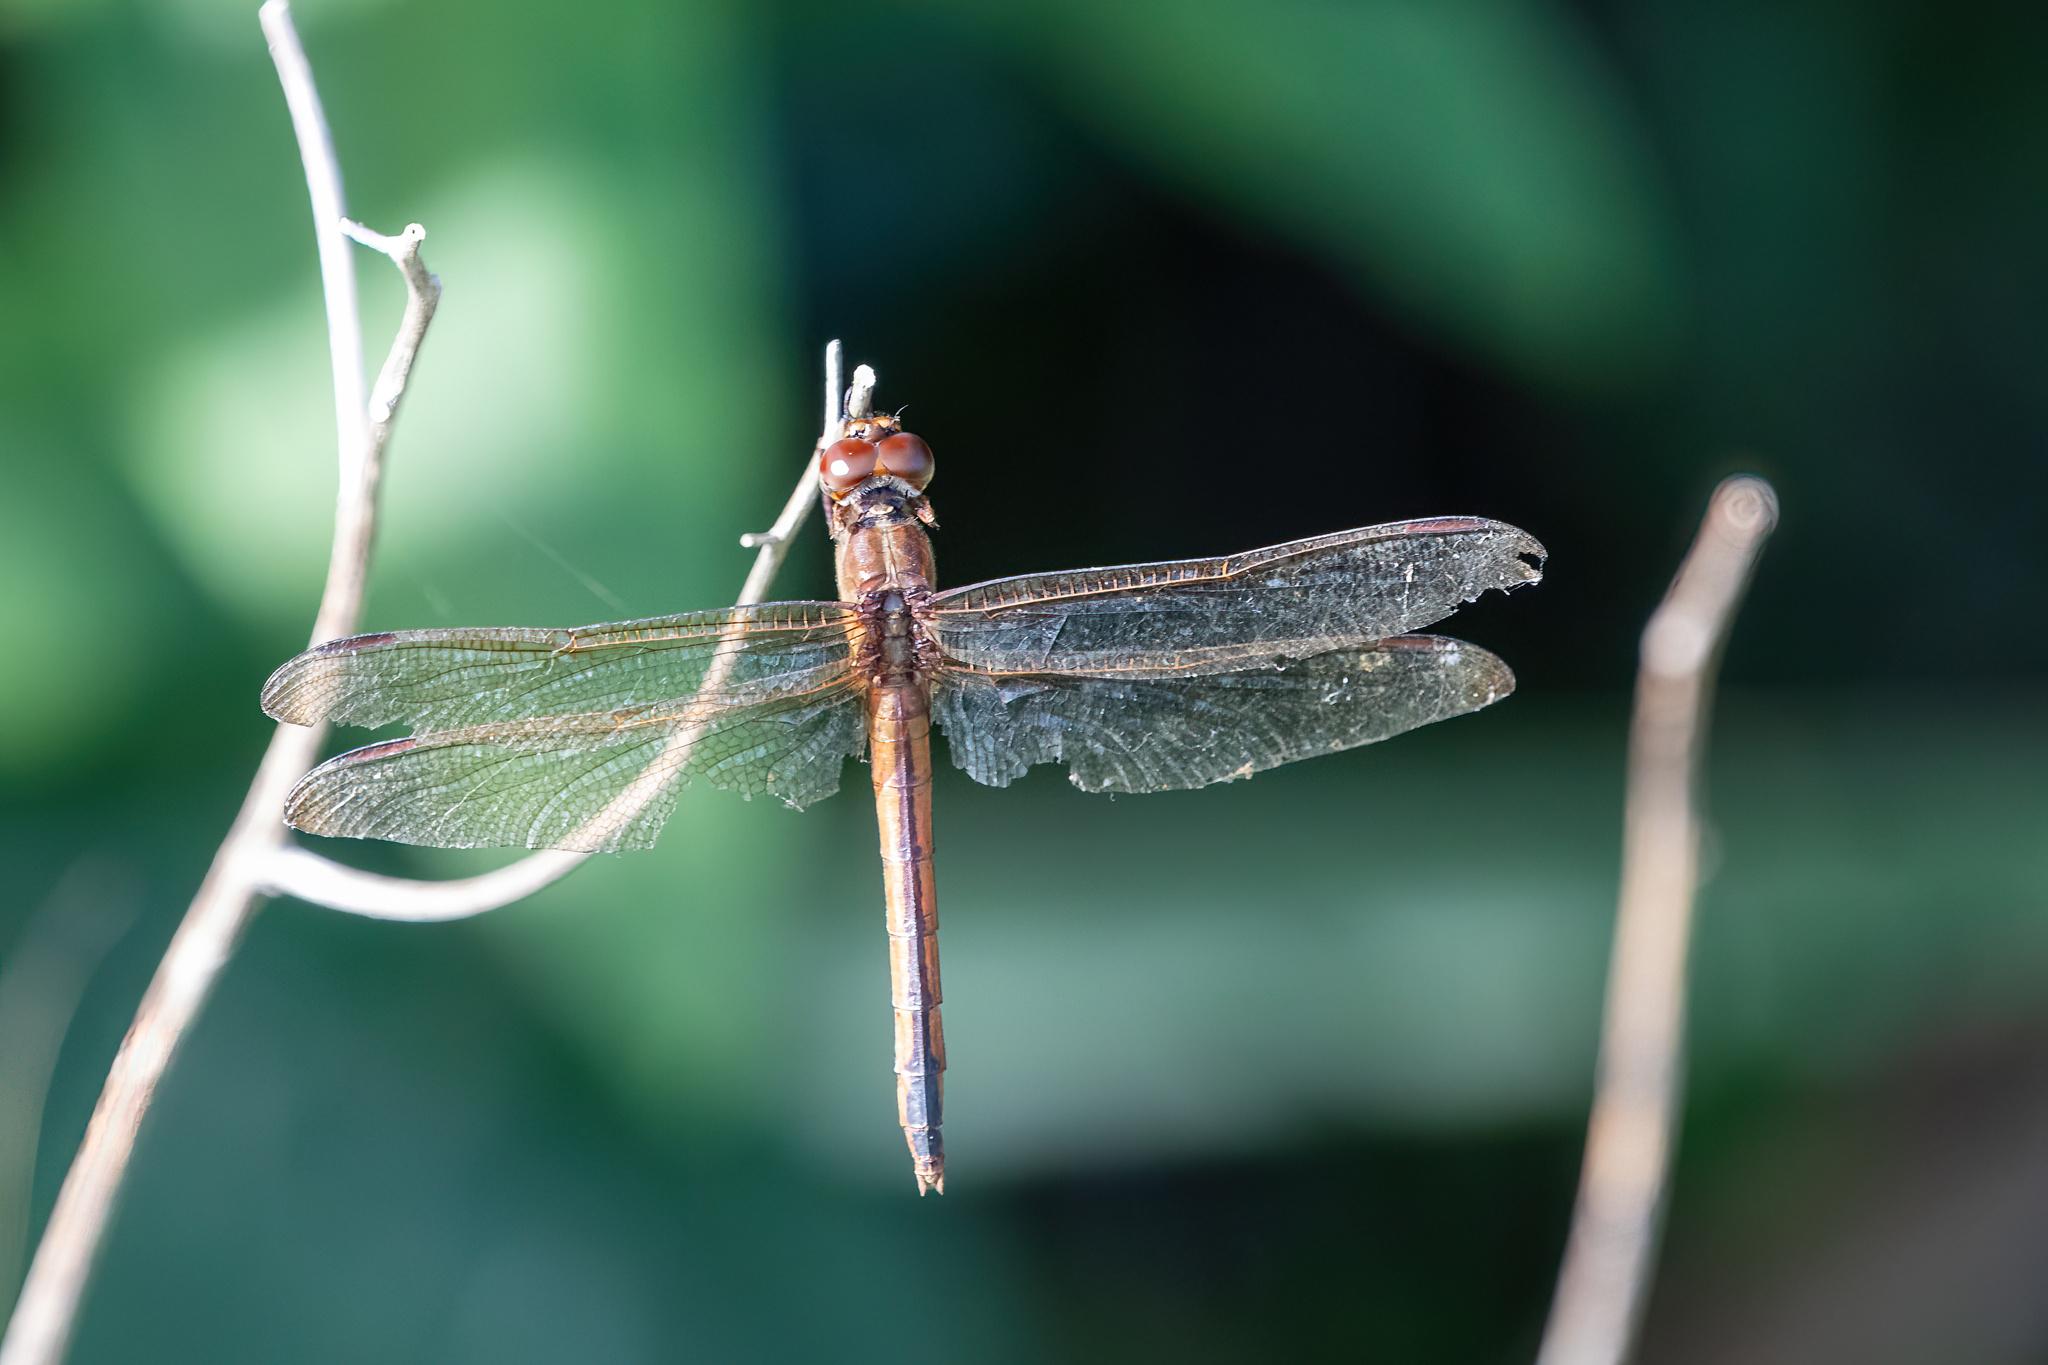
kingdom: Animalia
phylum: Arthropoda
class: Insecta
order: Odonata
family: Libellulidae
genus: Libellula
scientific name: Libellula needhami
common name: Needham's skimmer
